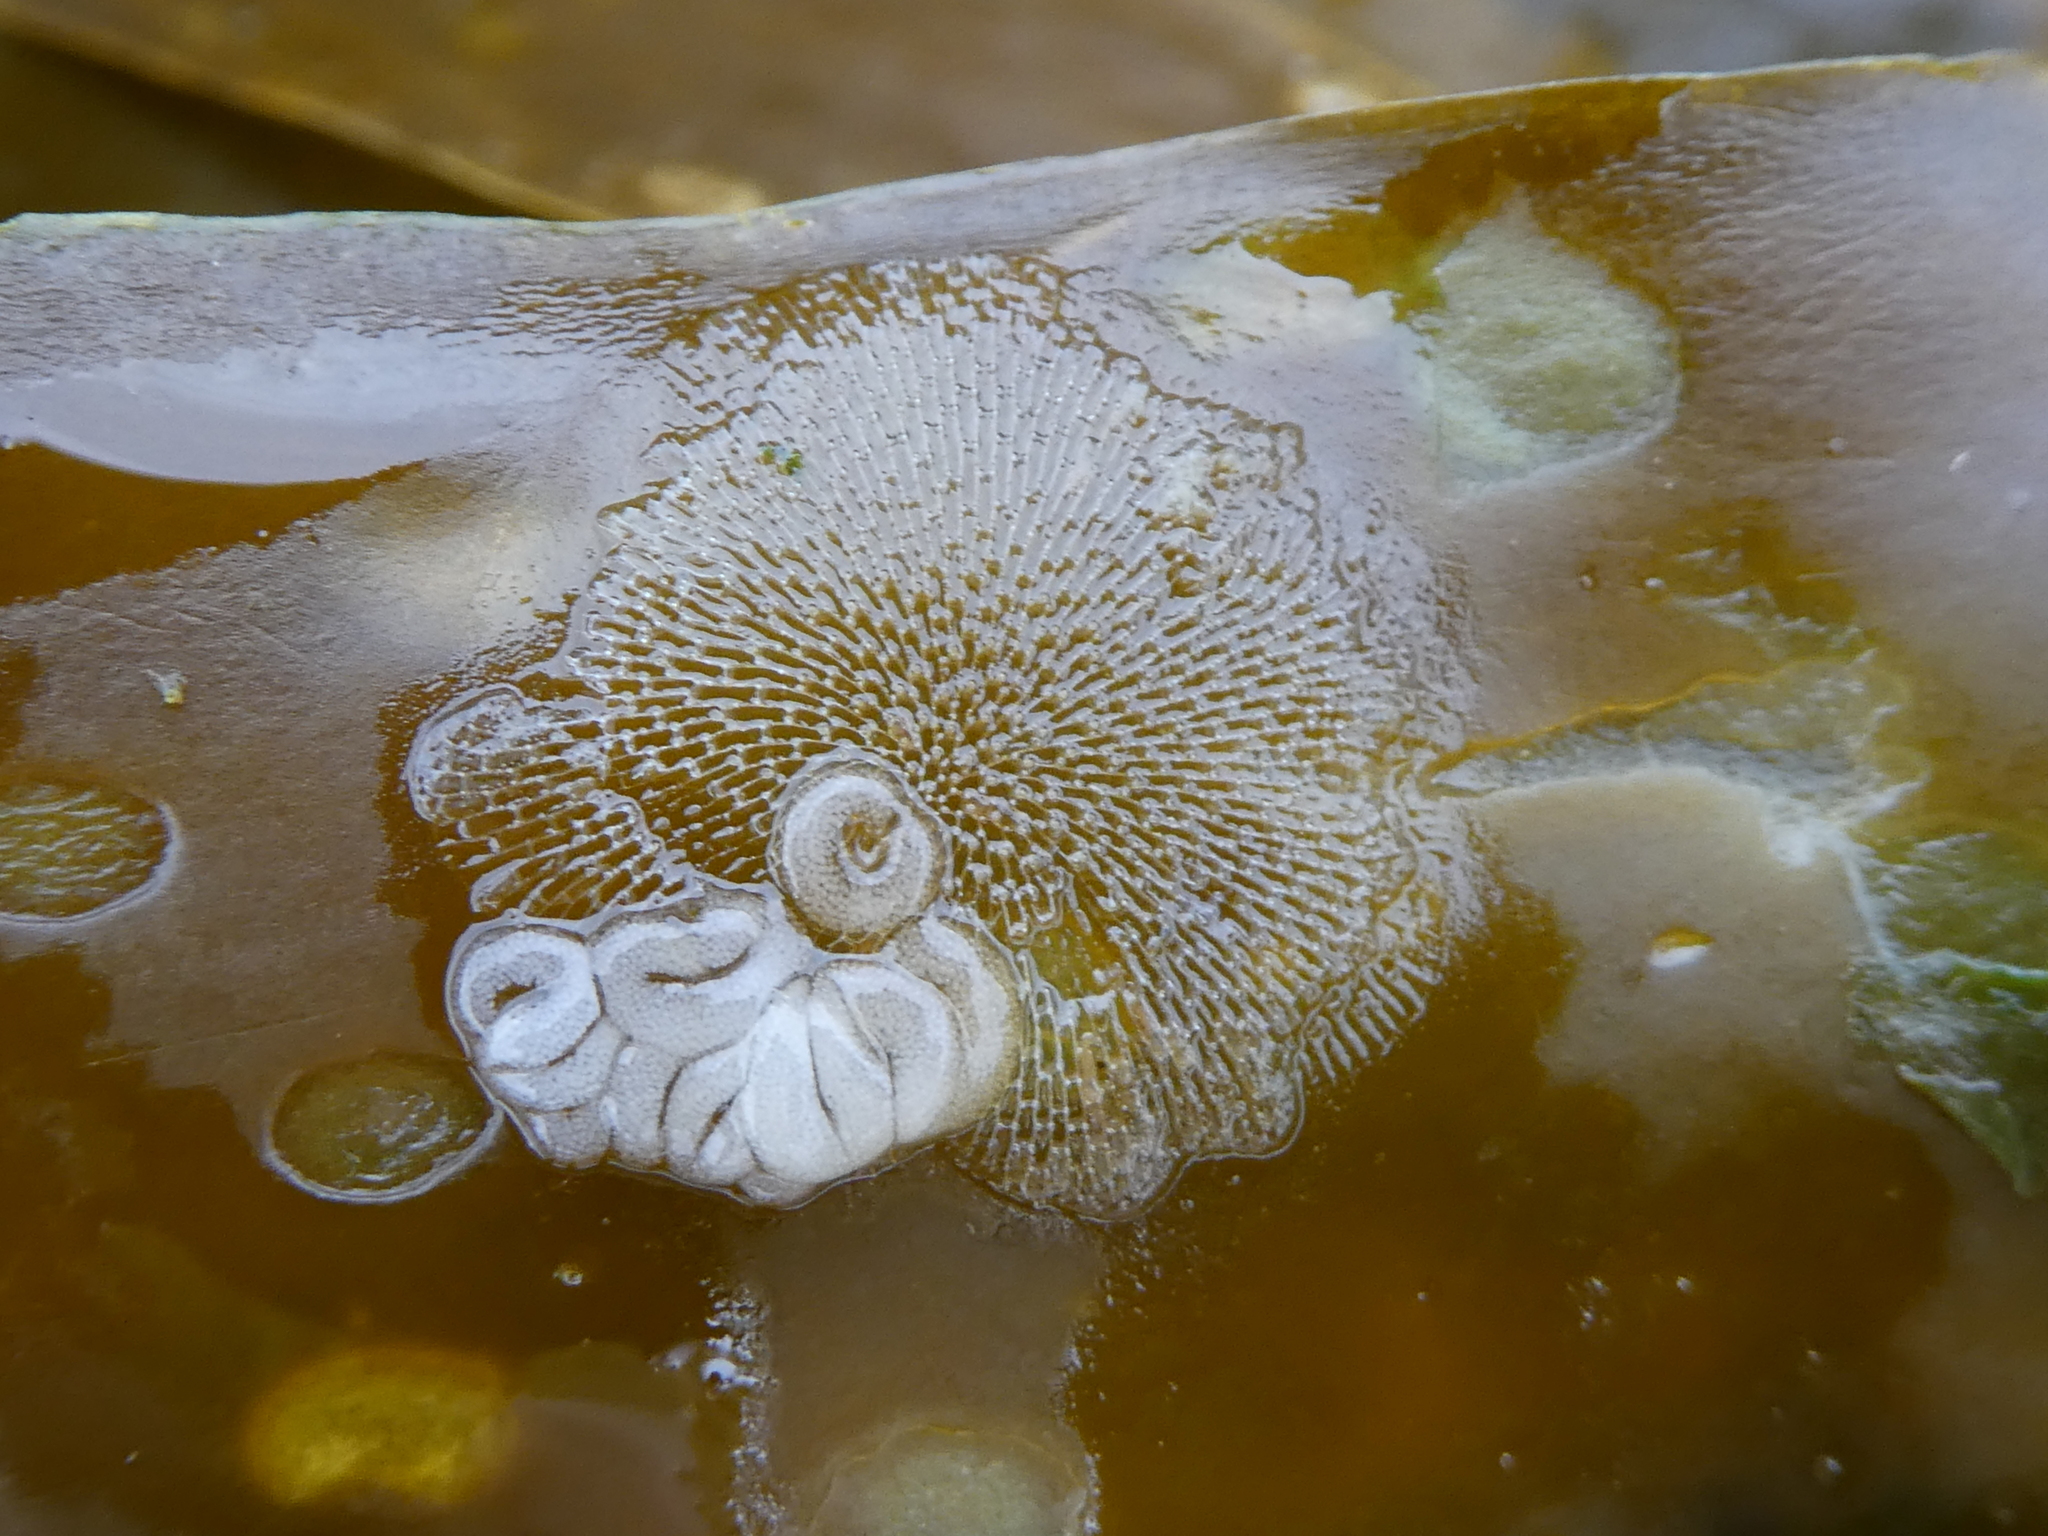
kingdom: Animalia
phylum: Mollusca
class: Gastropoda
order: Nudibranchia
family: Corambidae
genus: Corambe
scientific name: Corambe steinbergae
